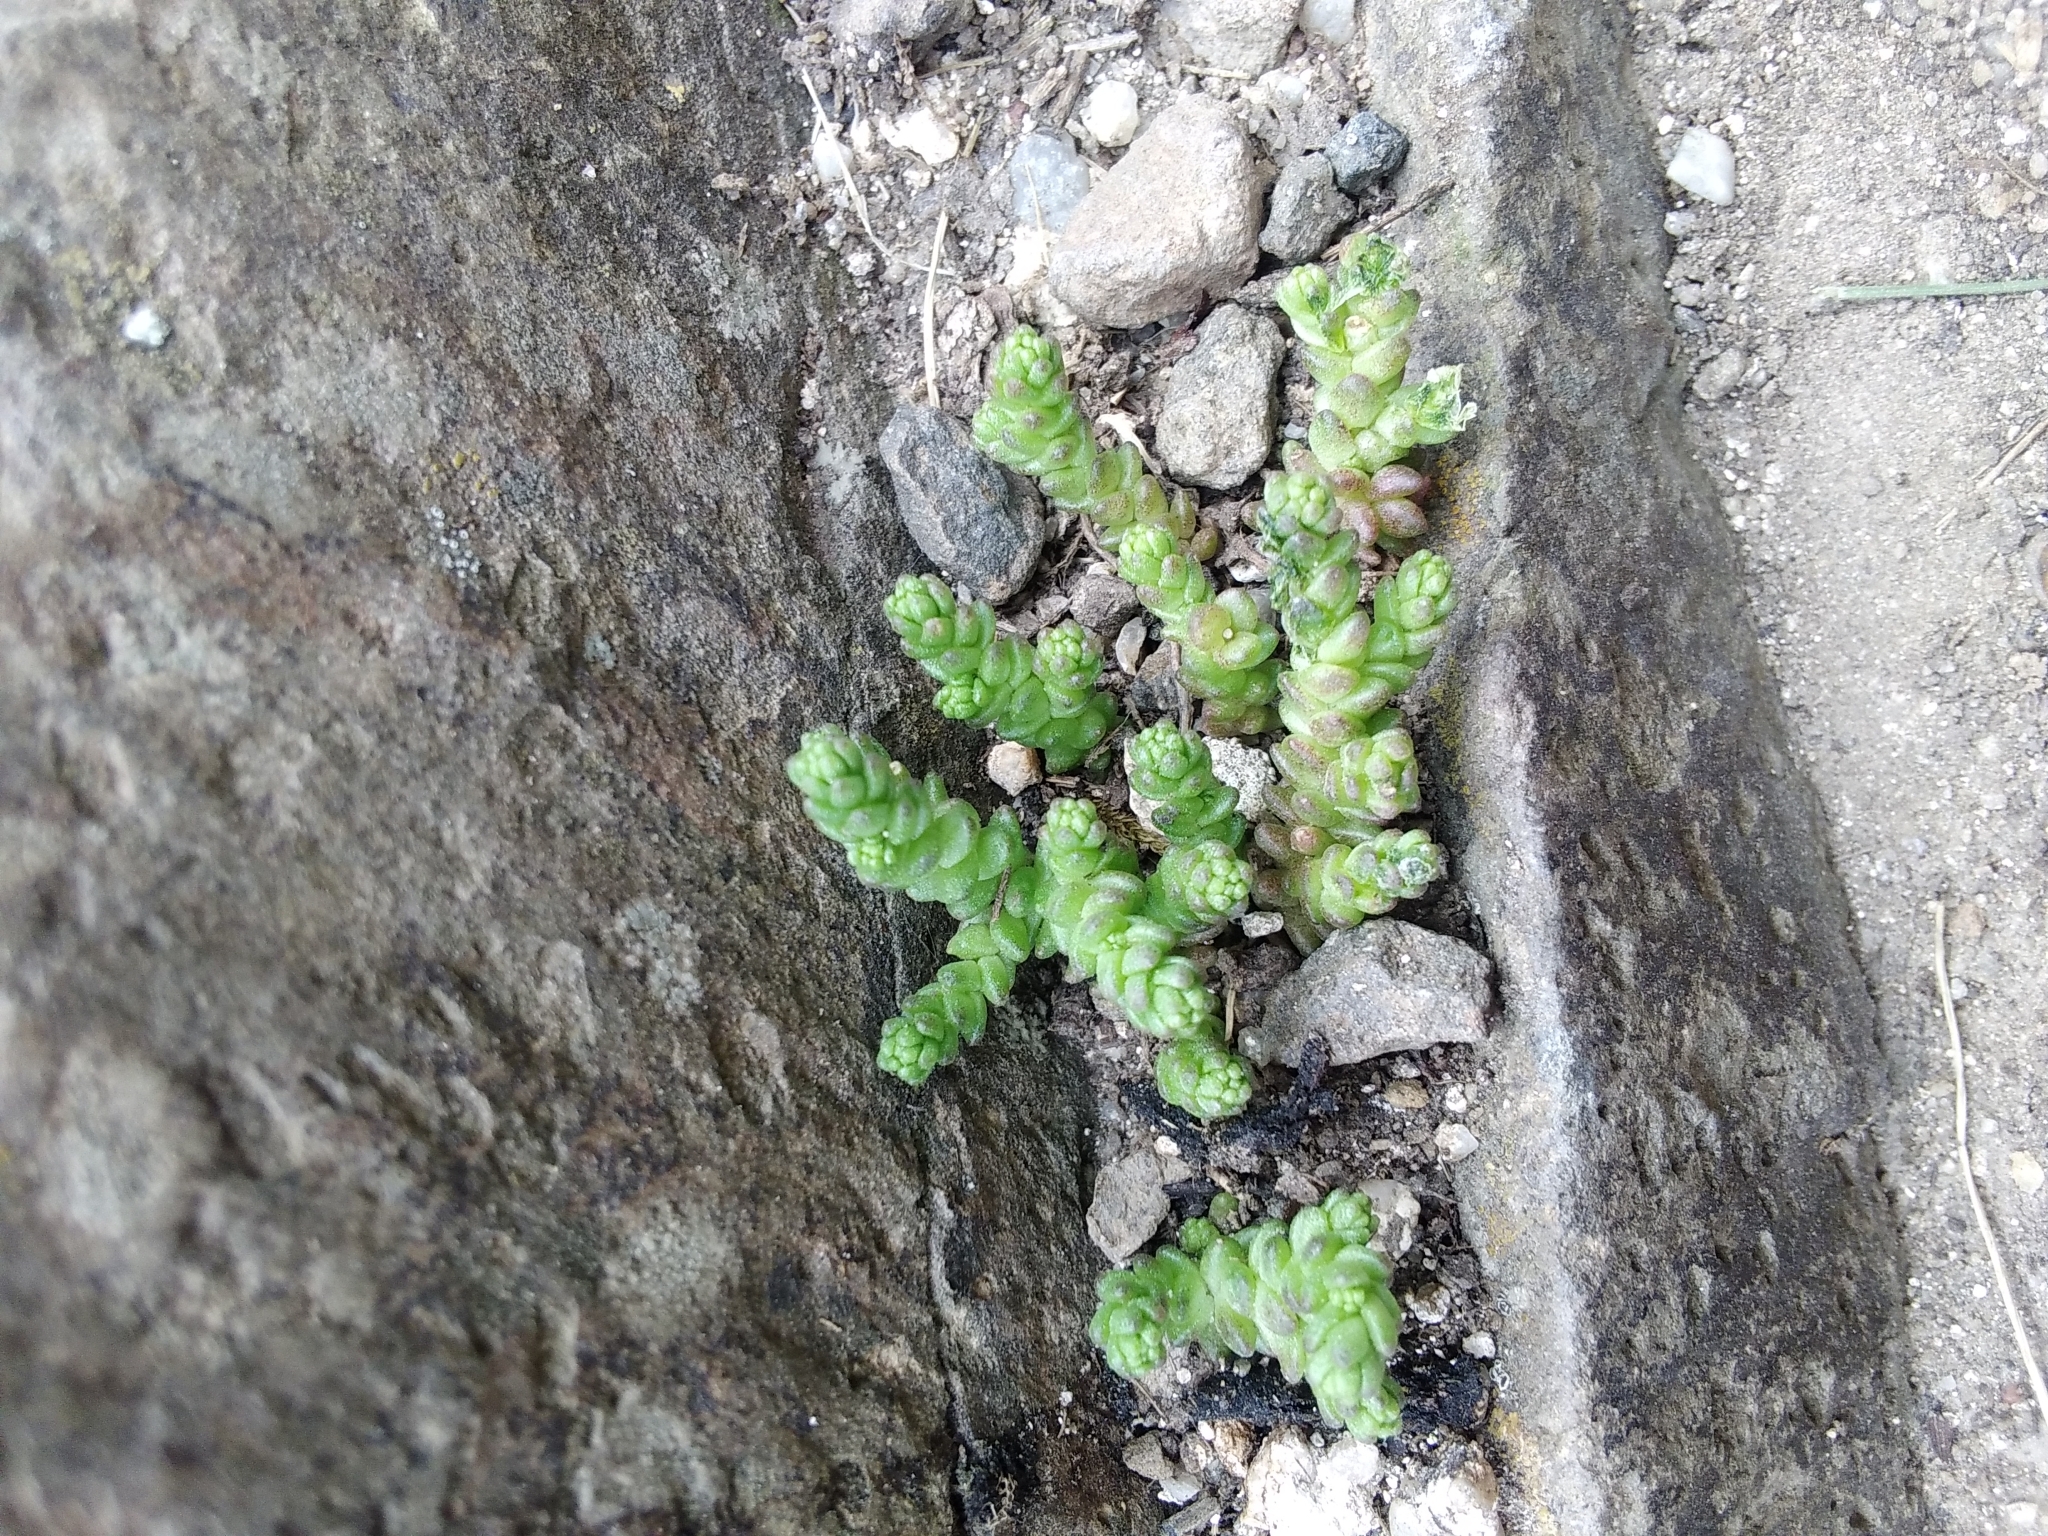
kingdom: Plantae
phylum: Tracheophyta
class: Magnoliopsida
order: Saxifragales
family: Crassulaceae
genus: Sedum
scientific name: Sedum acre
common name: Biting stonecrop
